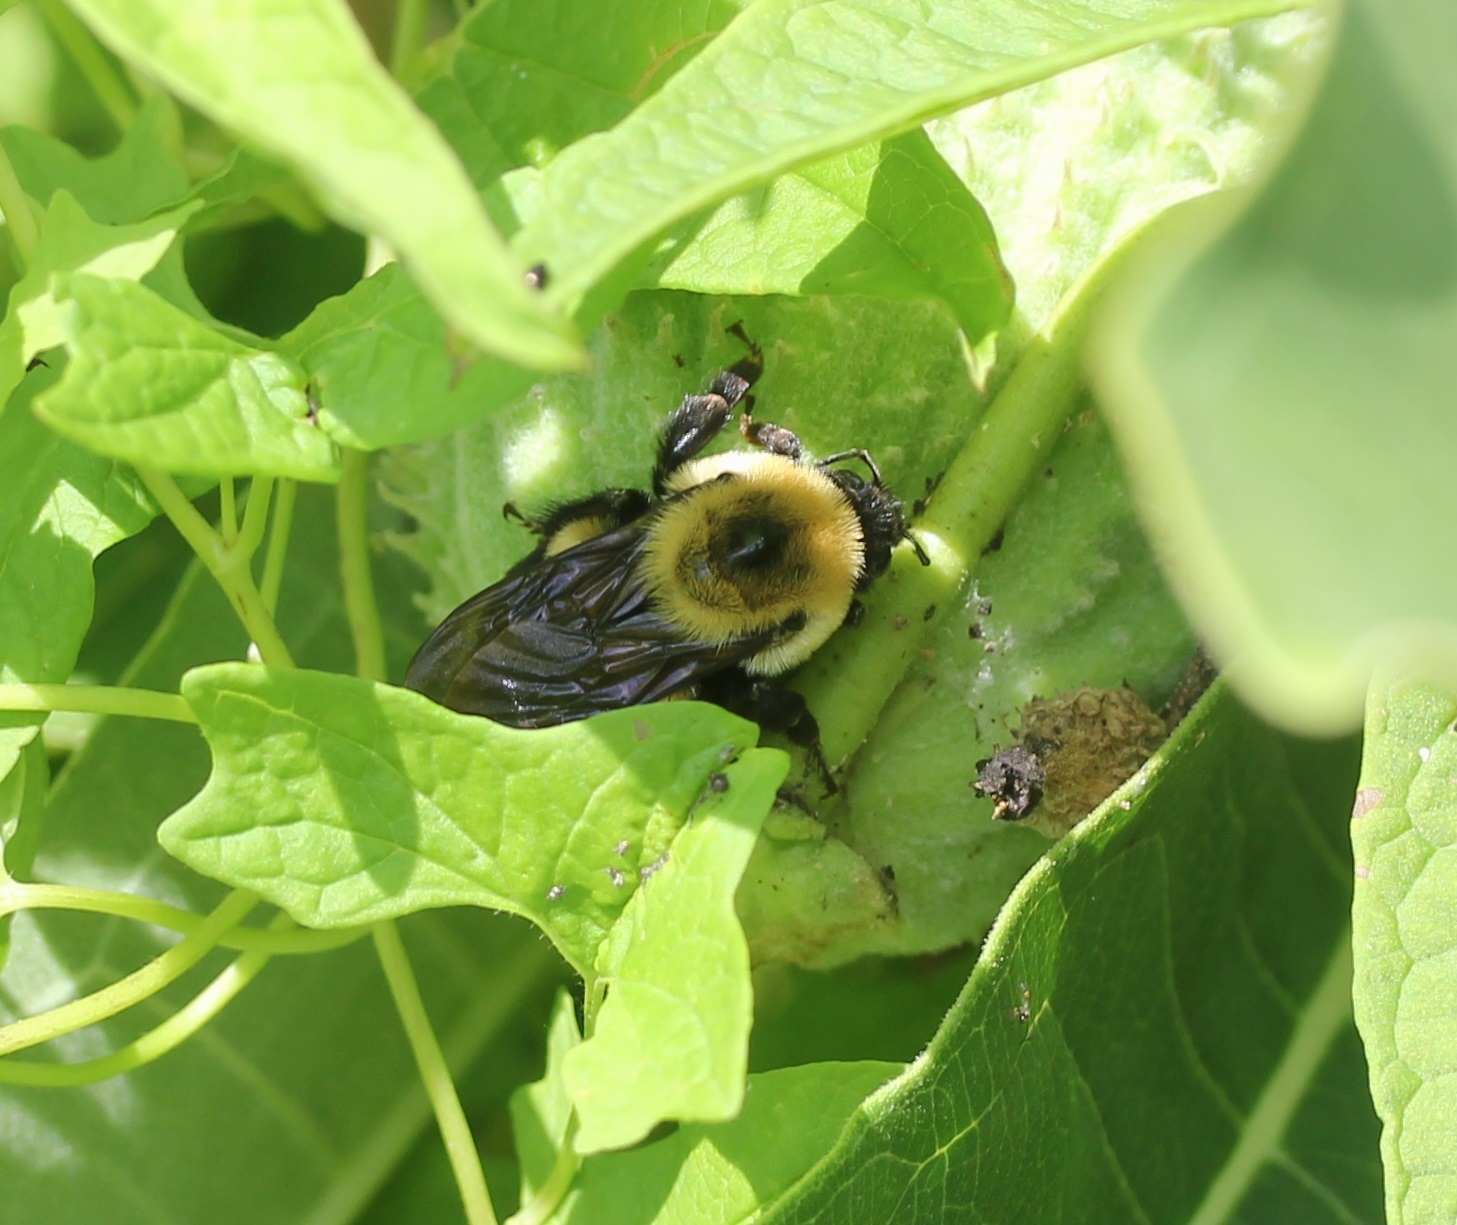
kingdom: Animalia
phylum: Arthropoda
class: Insecta
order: Hymenoptera
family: Apidae
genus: Bombus
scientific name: Bombus griseocollis
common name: Brown-belted bumble bee
